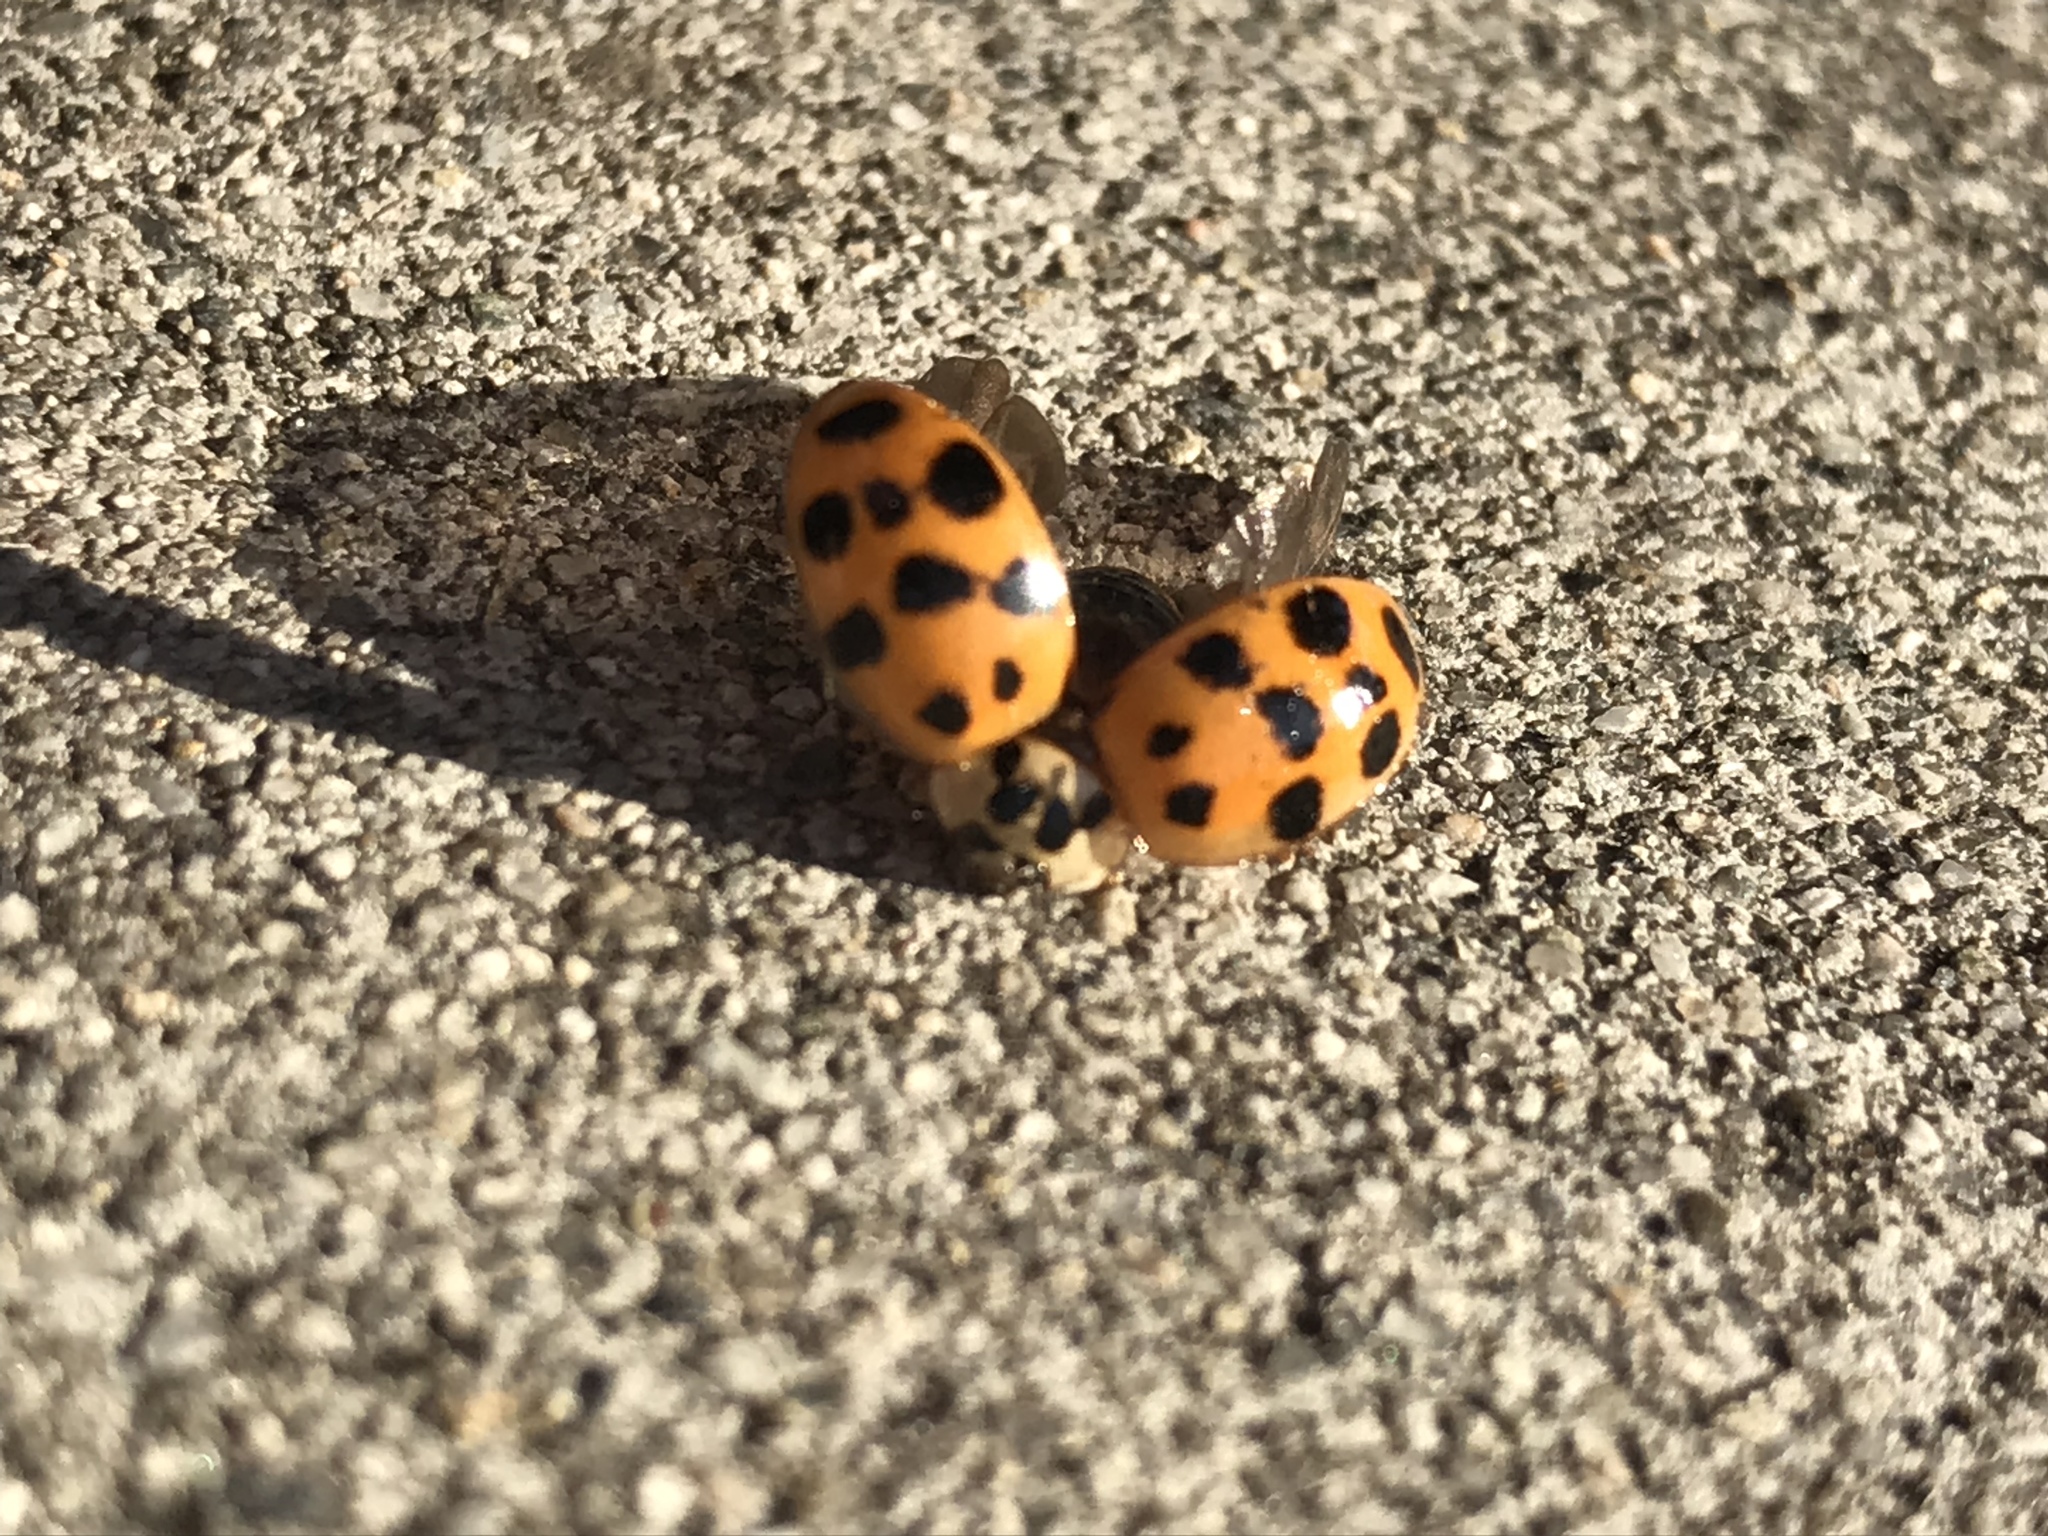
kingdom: Animalia
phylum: Arthropoda
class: Insecta
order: Coleoptera
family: Coccinellidae
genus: Harmonia
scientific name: Harmonia axyridis
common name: Harlequin ladybird
